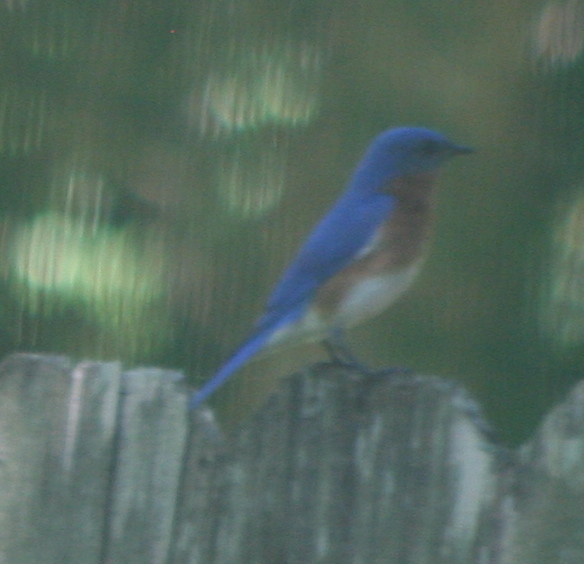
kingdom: Animalia
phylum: Chordata
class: Aves
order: Passeriformes
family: Turdidae
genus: Sialia
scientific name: Sialia sialis
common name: Eastern bluebird
